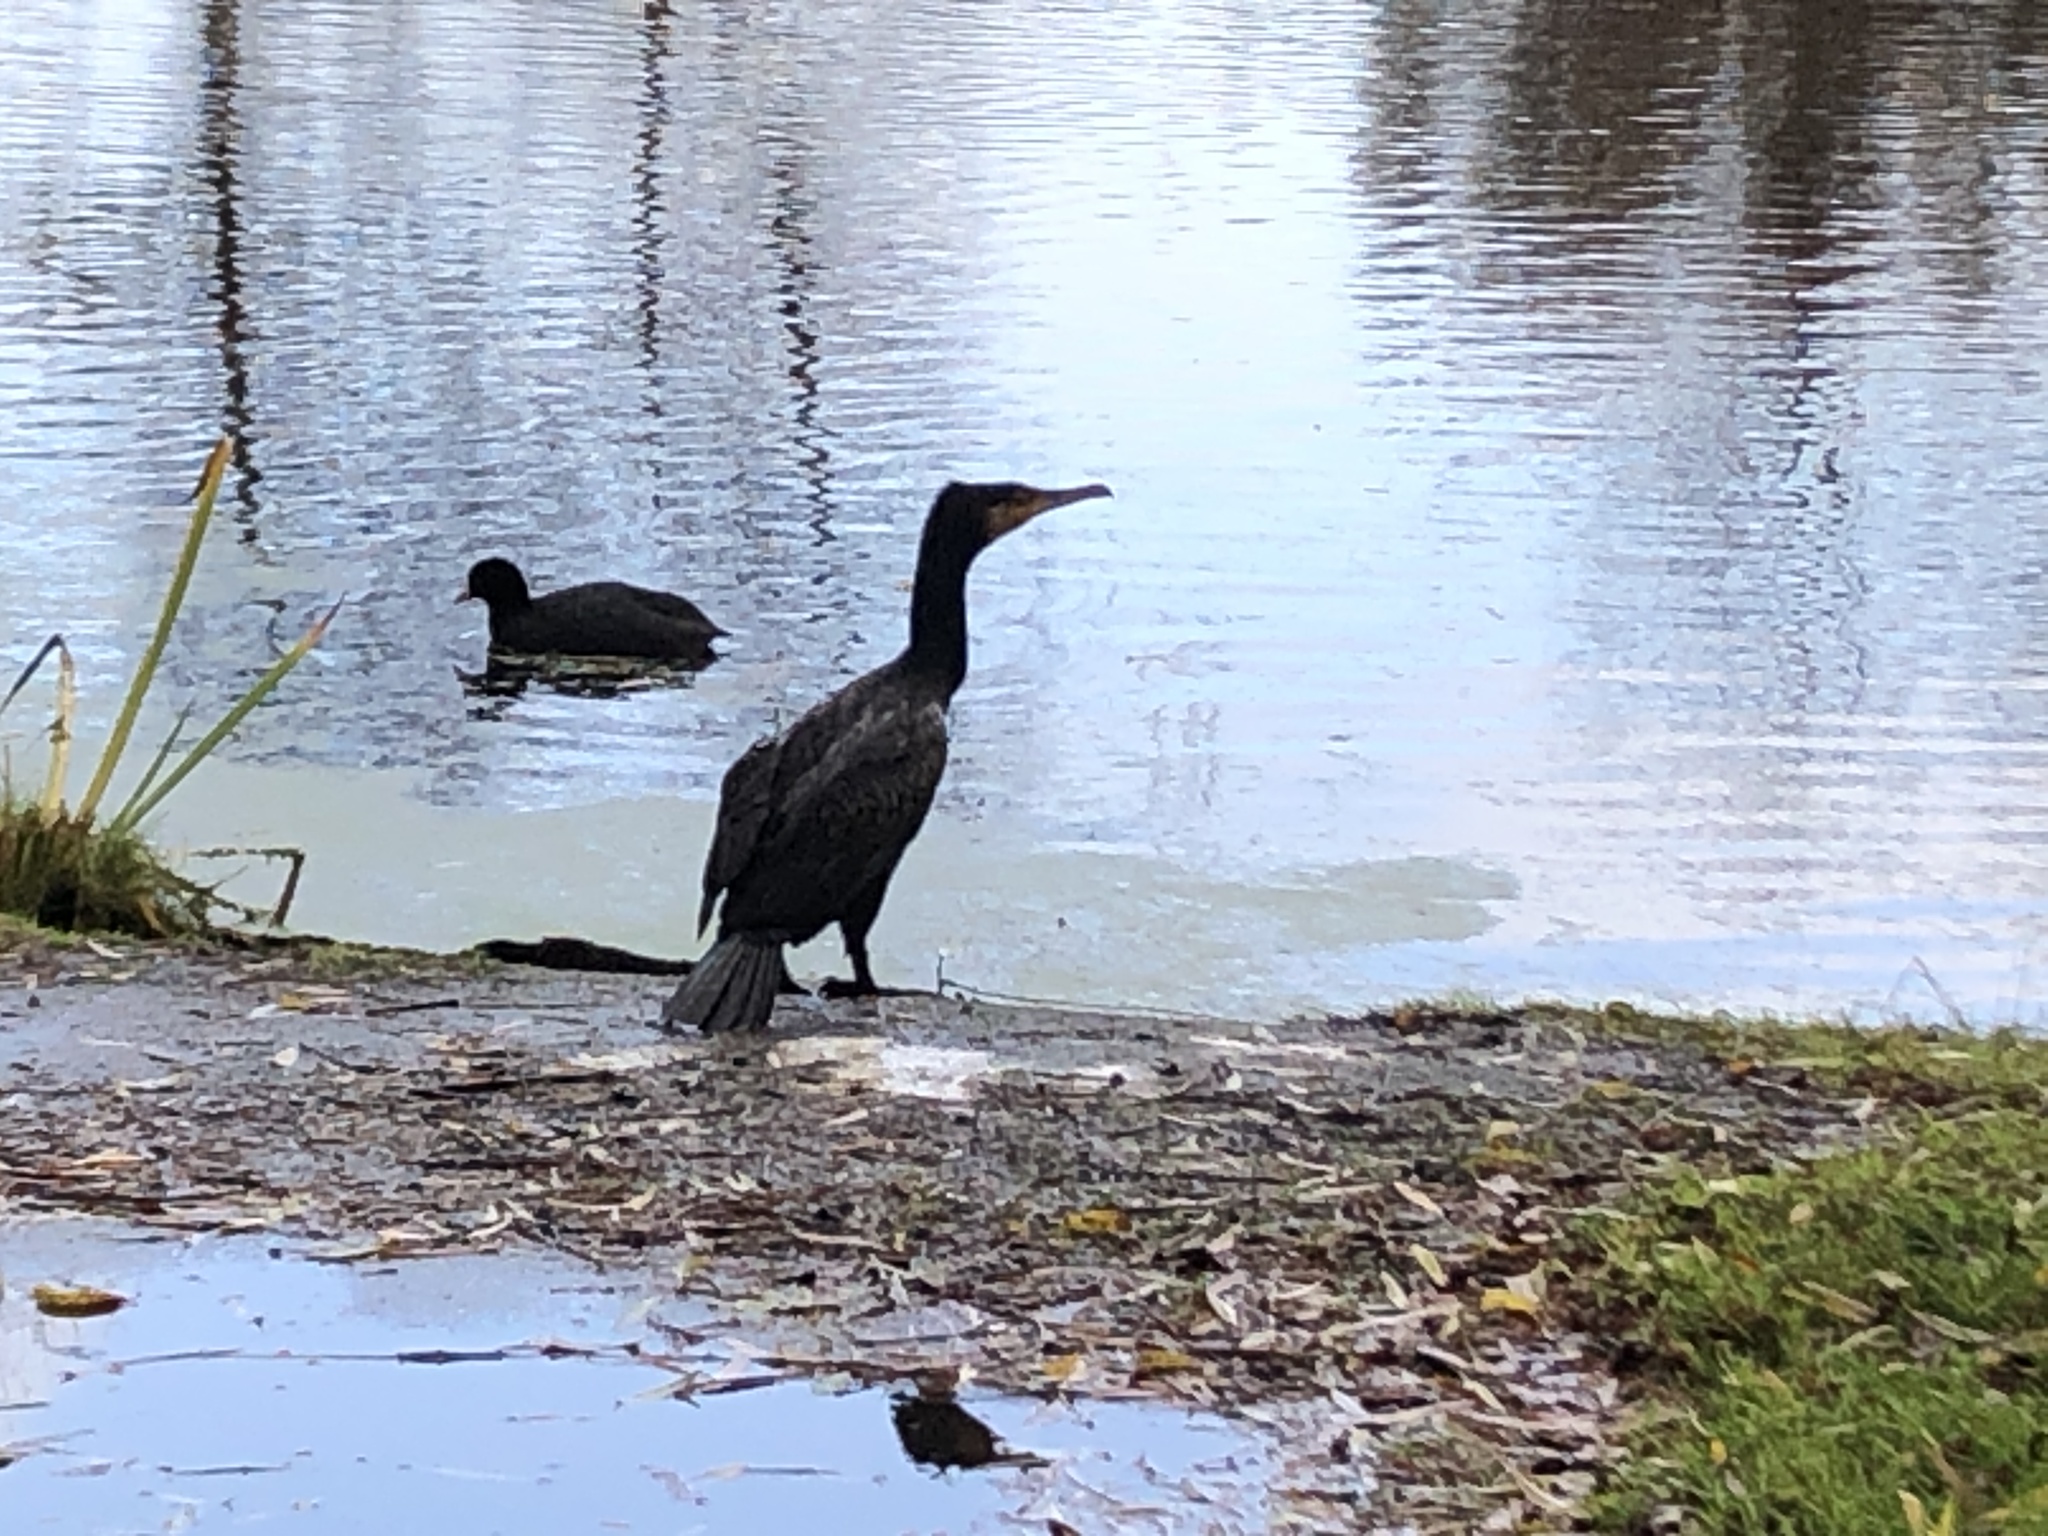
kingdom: Animalia
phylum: Chordata
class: Aves
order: Suliformes
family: Phalacrocoracidae
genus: Phalacrocorax
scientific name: Phalacrocorax carbo
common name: Great cormorant
